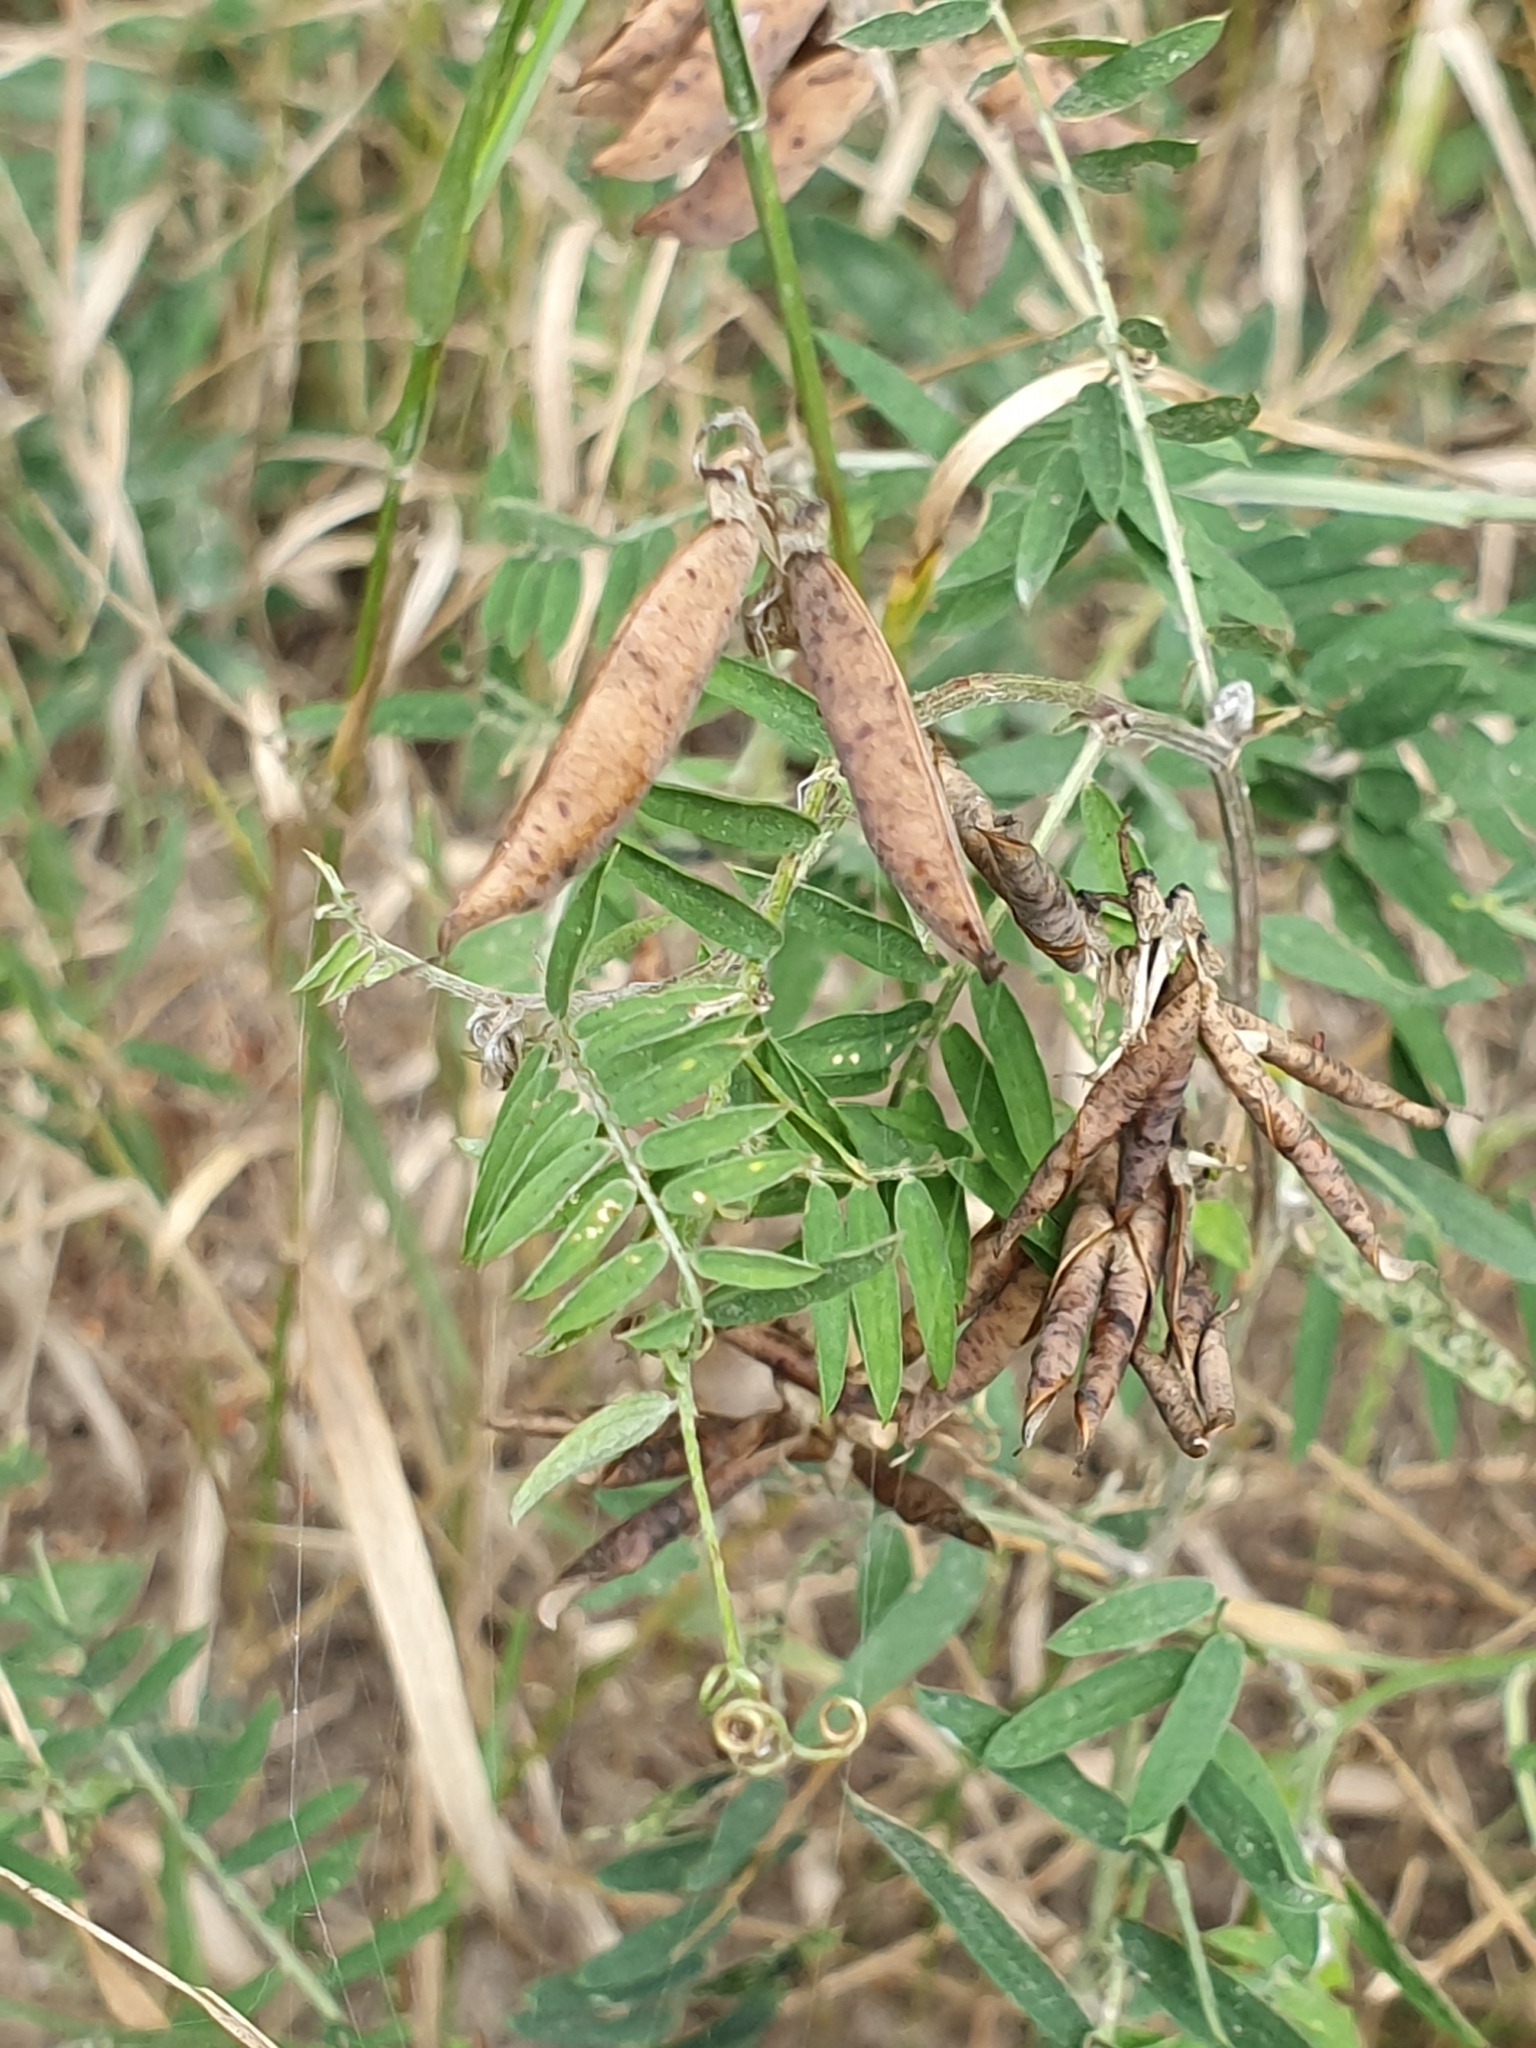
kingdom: Plantae
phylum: Tracheophyta
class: Magnoliopsida
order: Fabales
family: Fabaceae
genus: Vicia
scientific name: Vicia cracca
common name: Bird vetch
